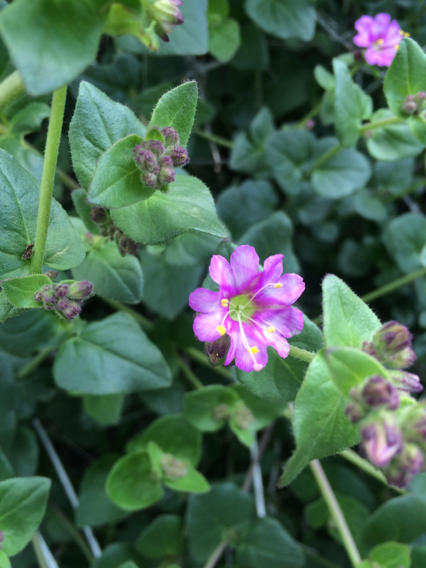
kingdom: Plantae
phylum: Tracheophyta
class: Magnoliopsida
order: Caryophyllales
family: Nyctaginaceae
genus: Mirabilis
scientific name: Mirabilis laevis
